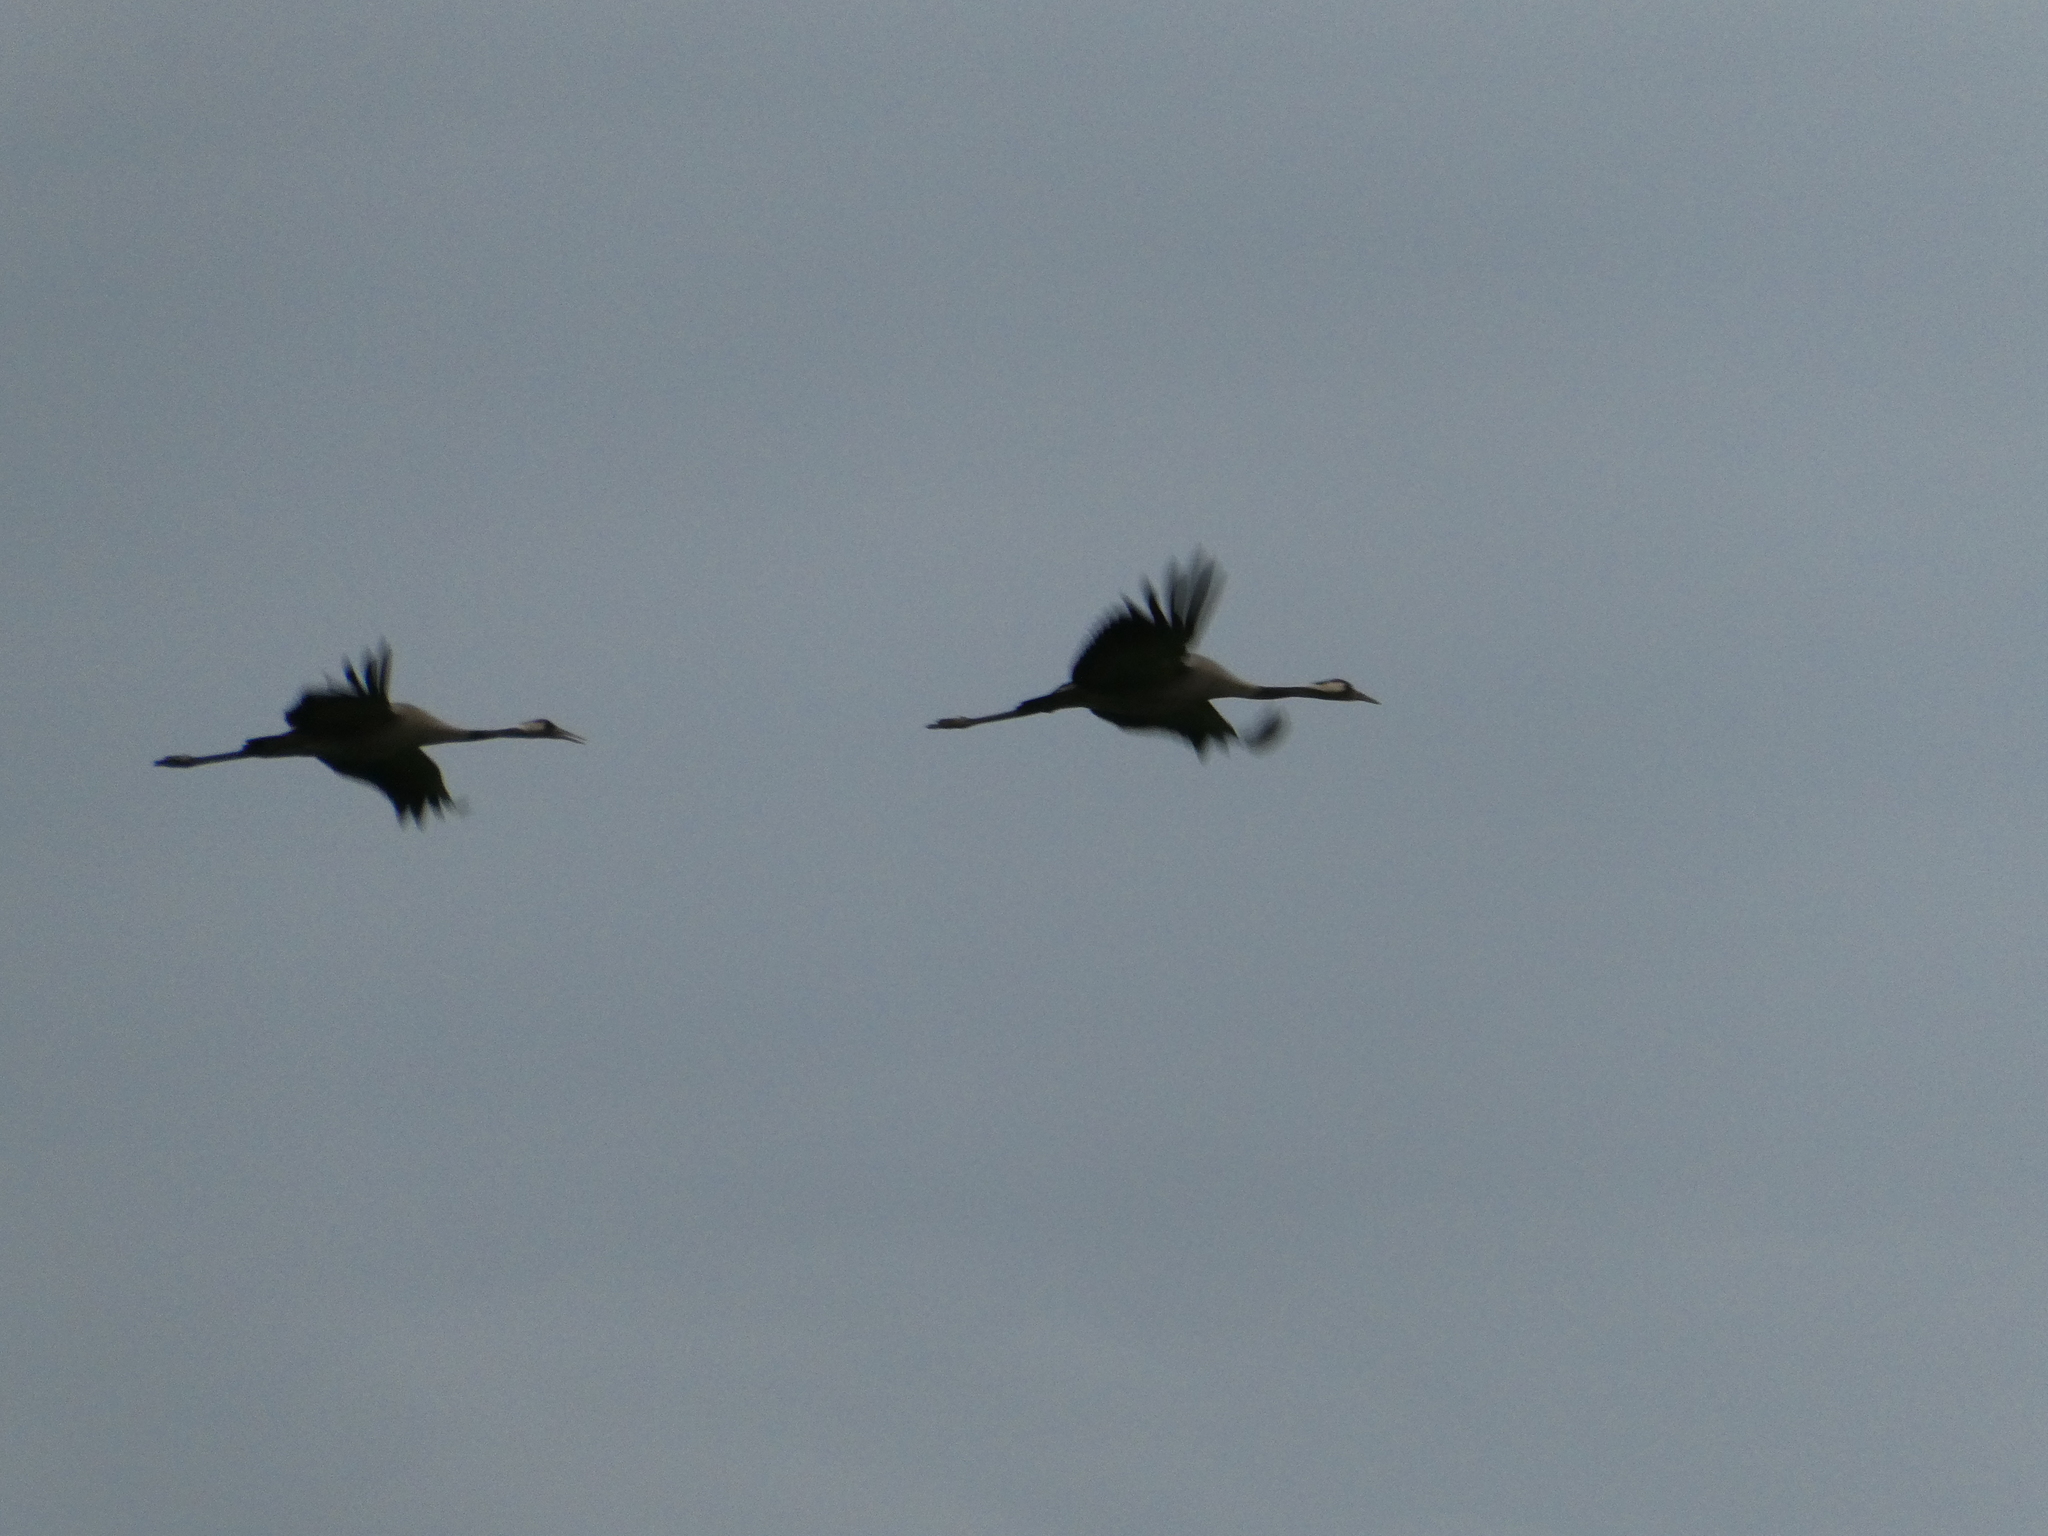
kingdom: Animalia
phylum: Chordata
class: Aves
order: Gruiformes
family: Gruidae
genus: Grus
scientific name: Grus grus
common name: Common crane
